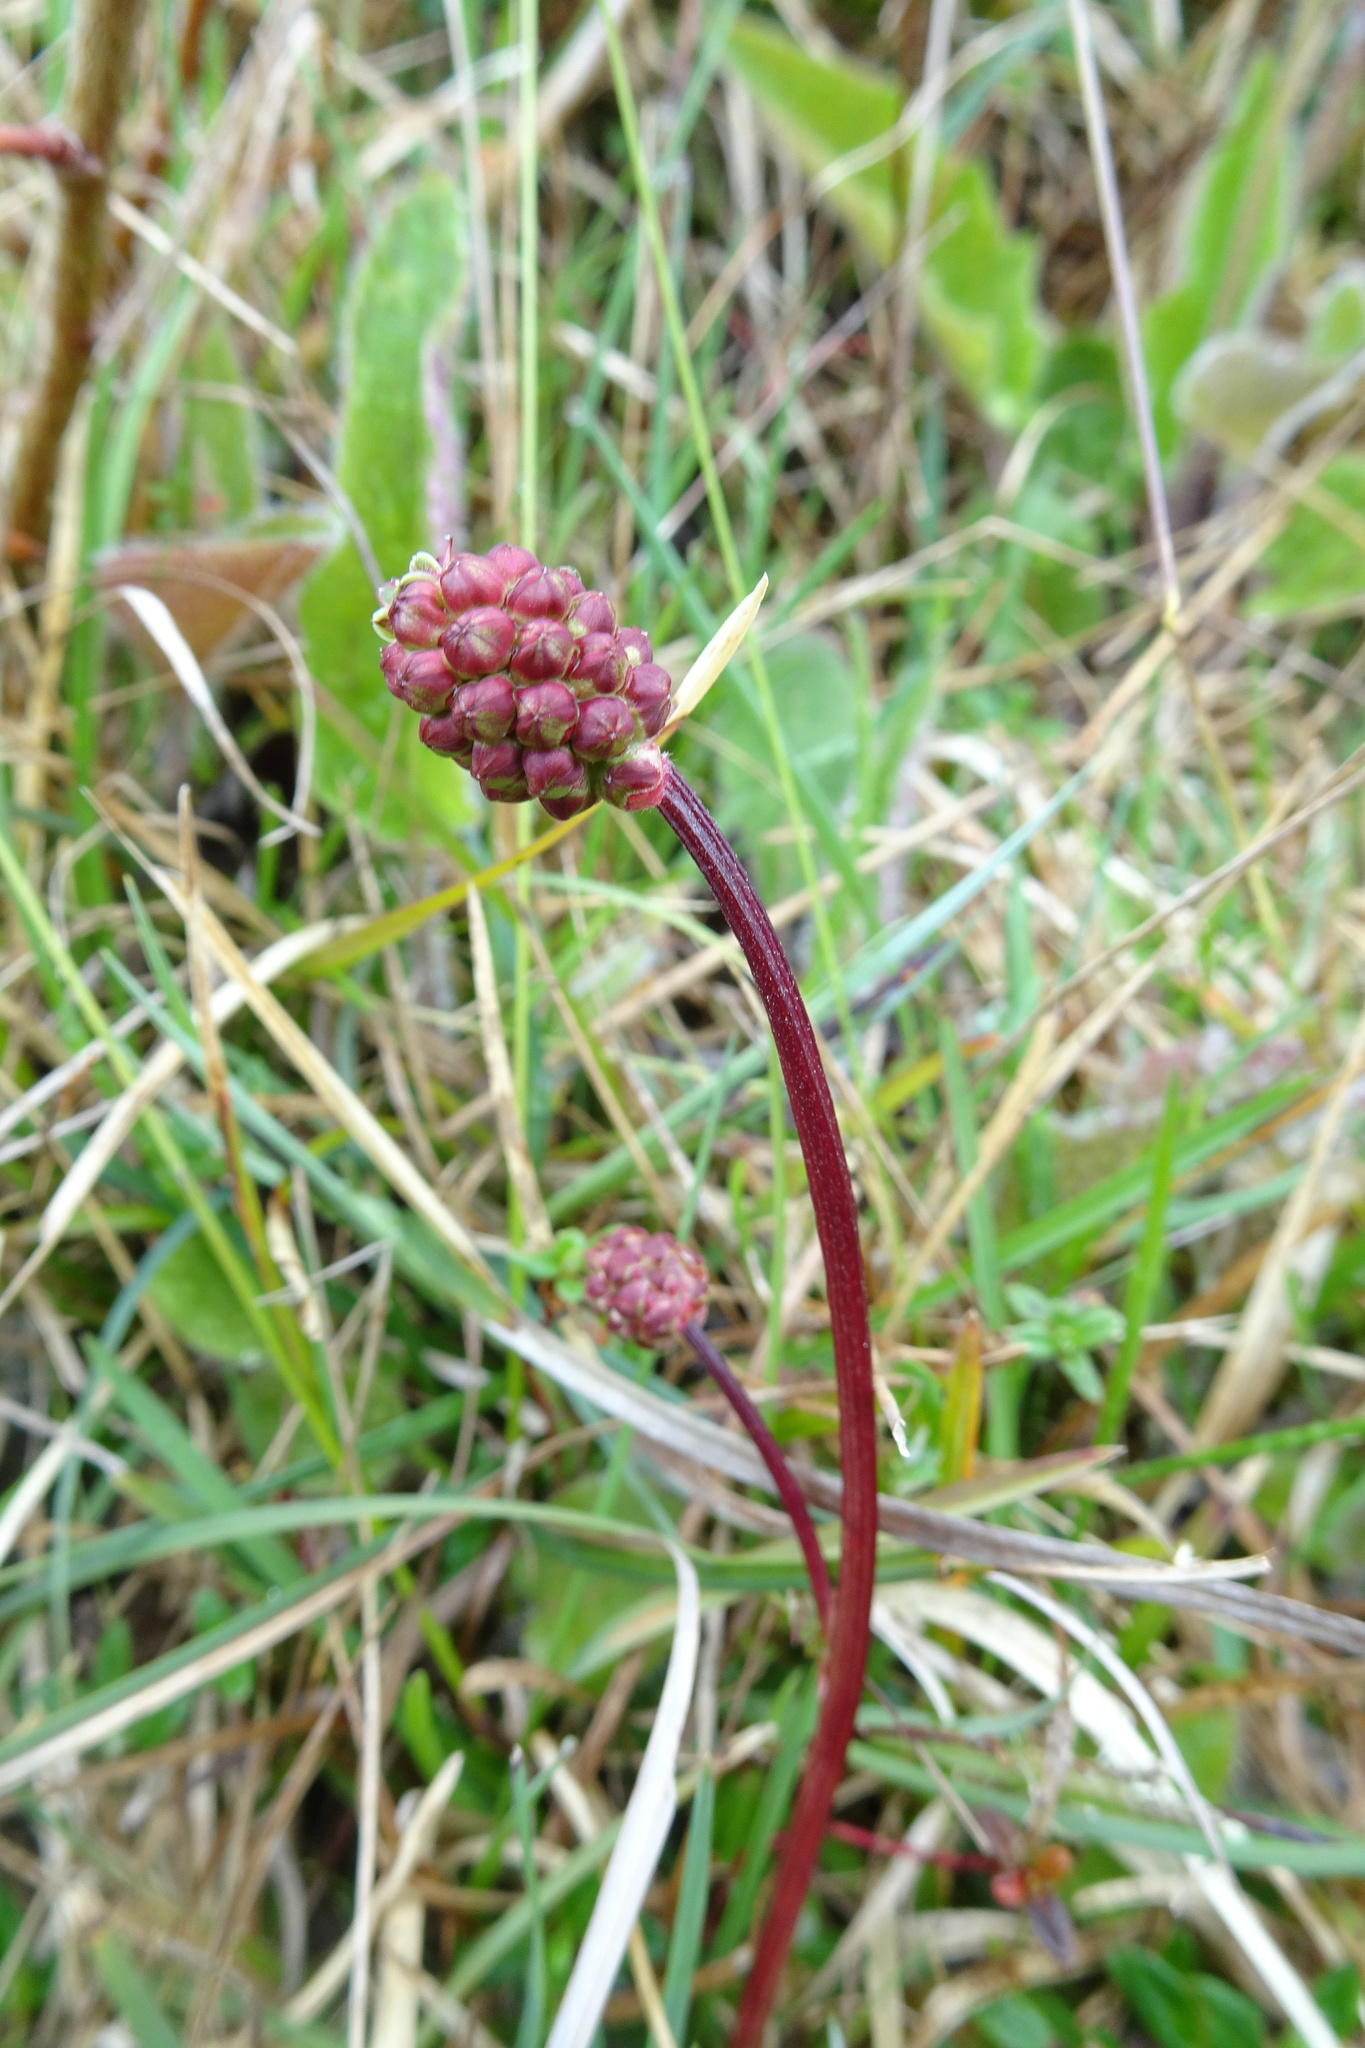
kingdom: Plantae
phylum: Tracheophyta
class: Magnoliopsida
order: Rosales
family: Rosaceae
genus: Poterium
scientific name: Poterium sanguisorba
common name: Salad burnet
